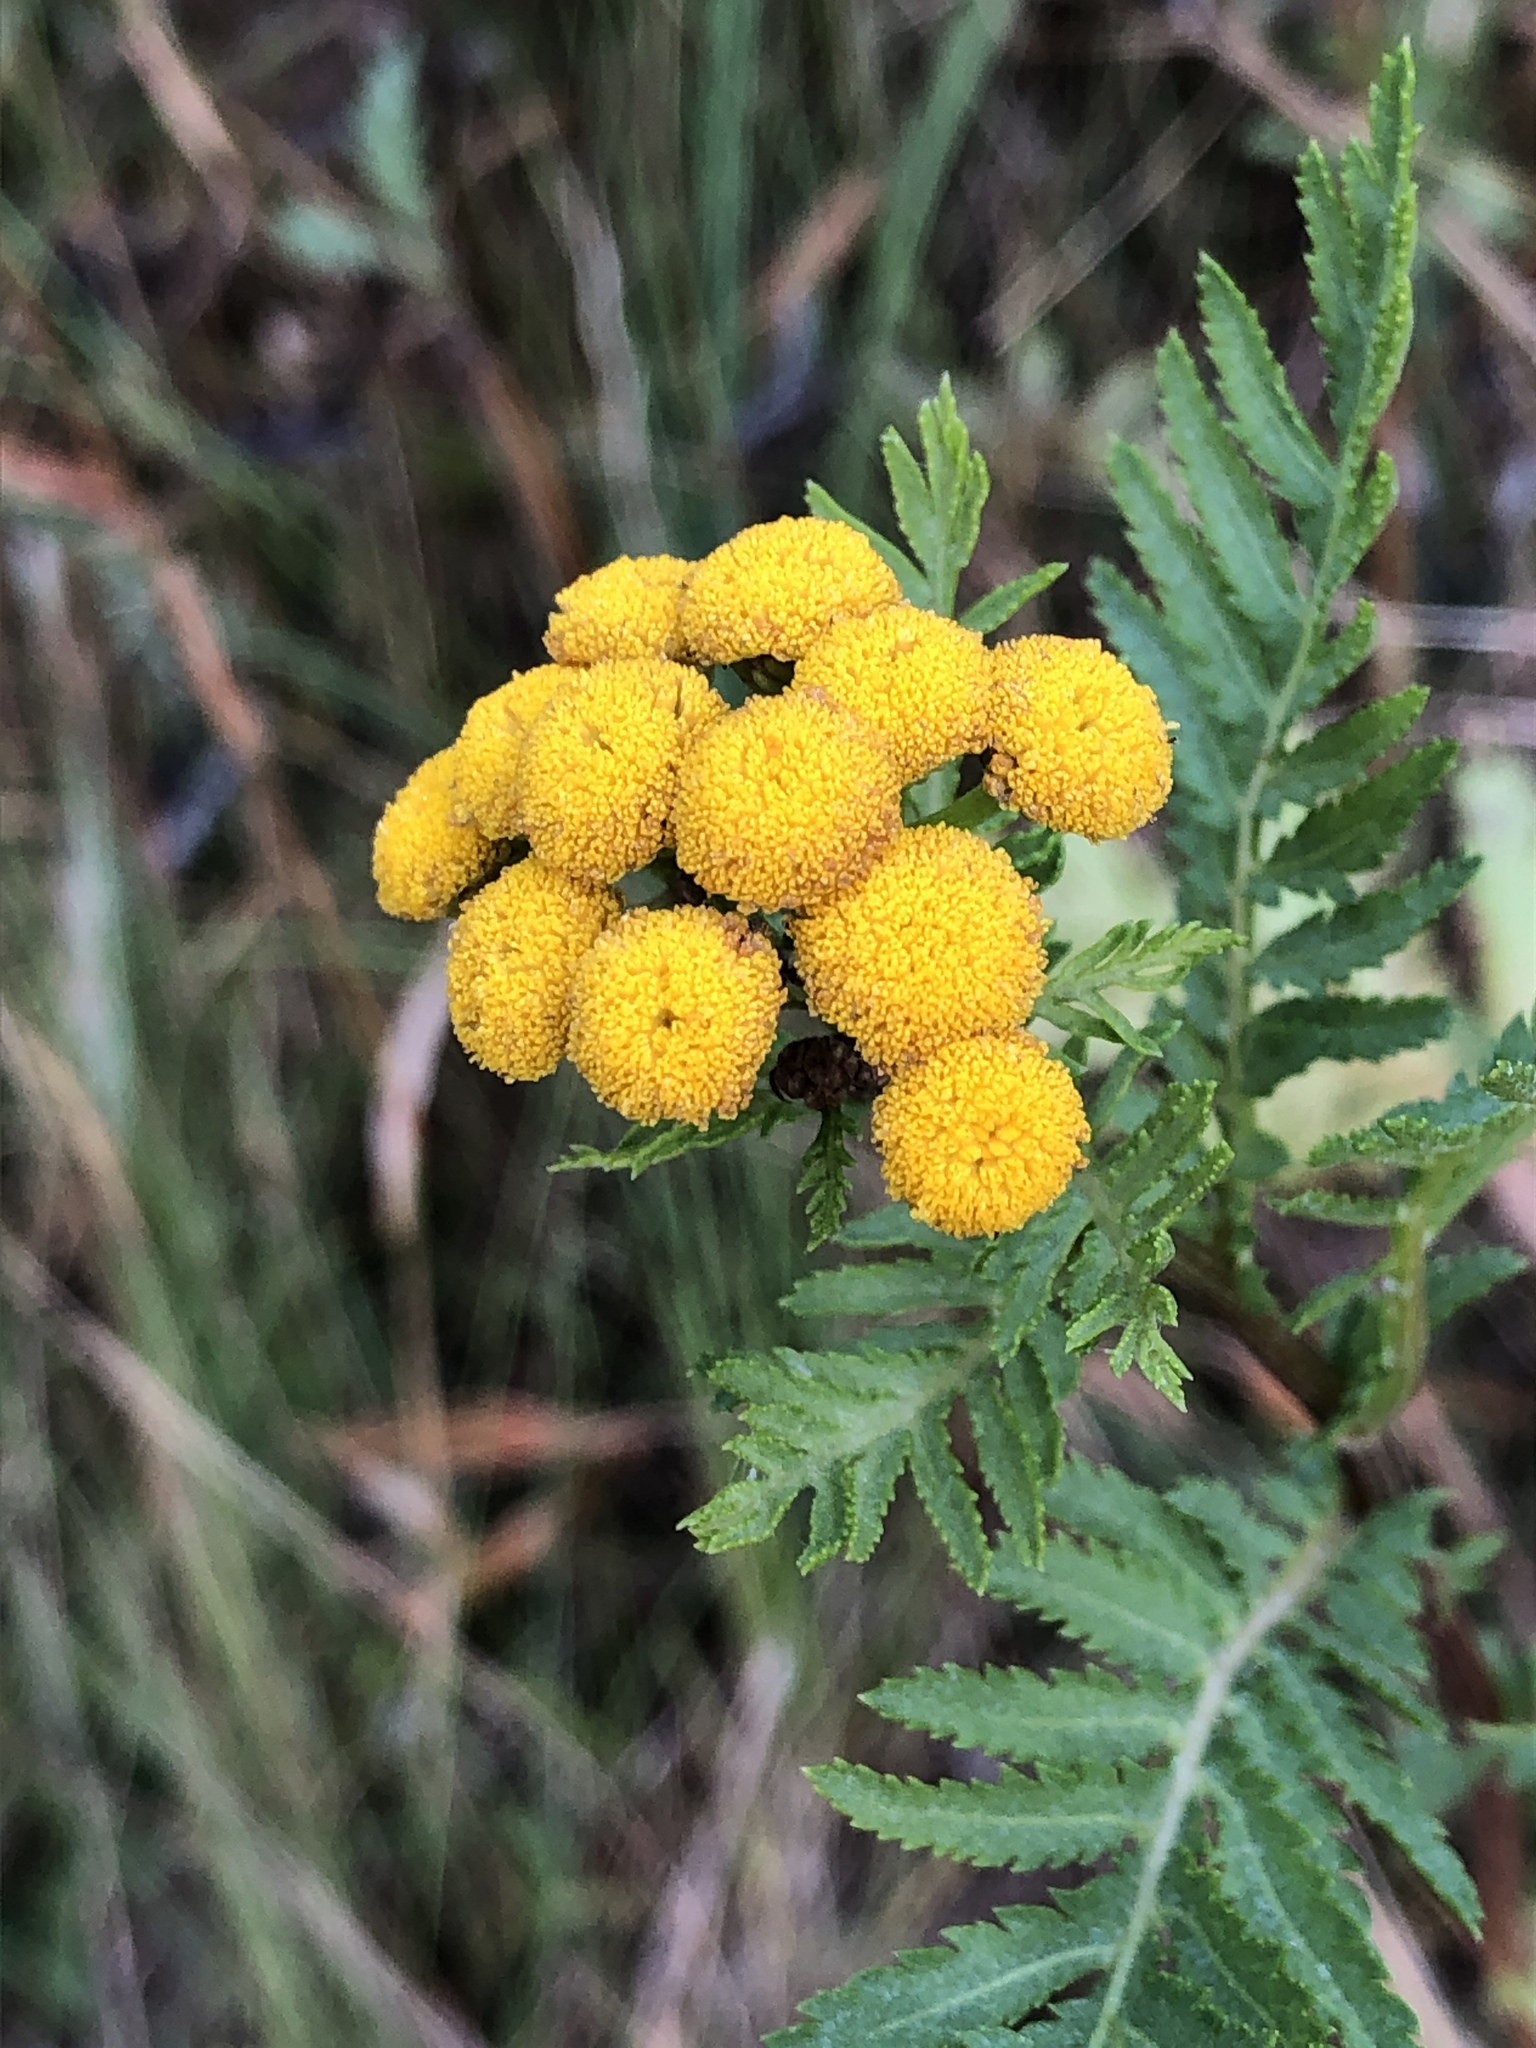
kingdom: Plantae
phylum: Tracheophyta
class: Magnoliopsida
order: Asterales
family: Asteraceae
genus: Tanacetum
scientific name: Tanacetum vulgare
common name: Common tansy
